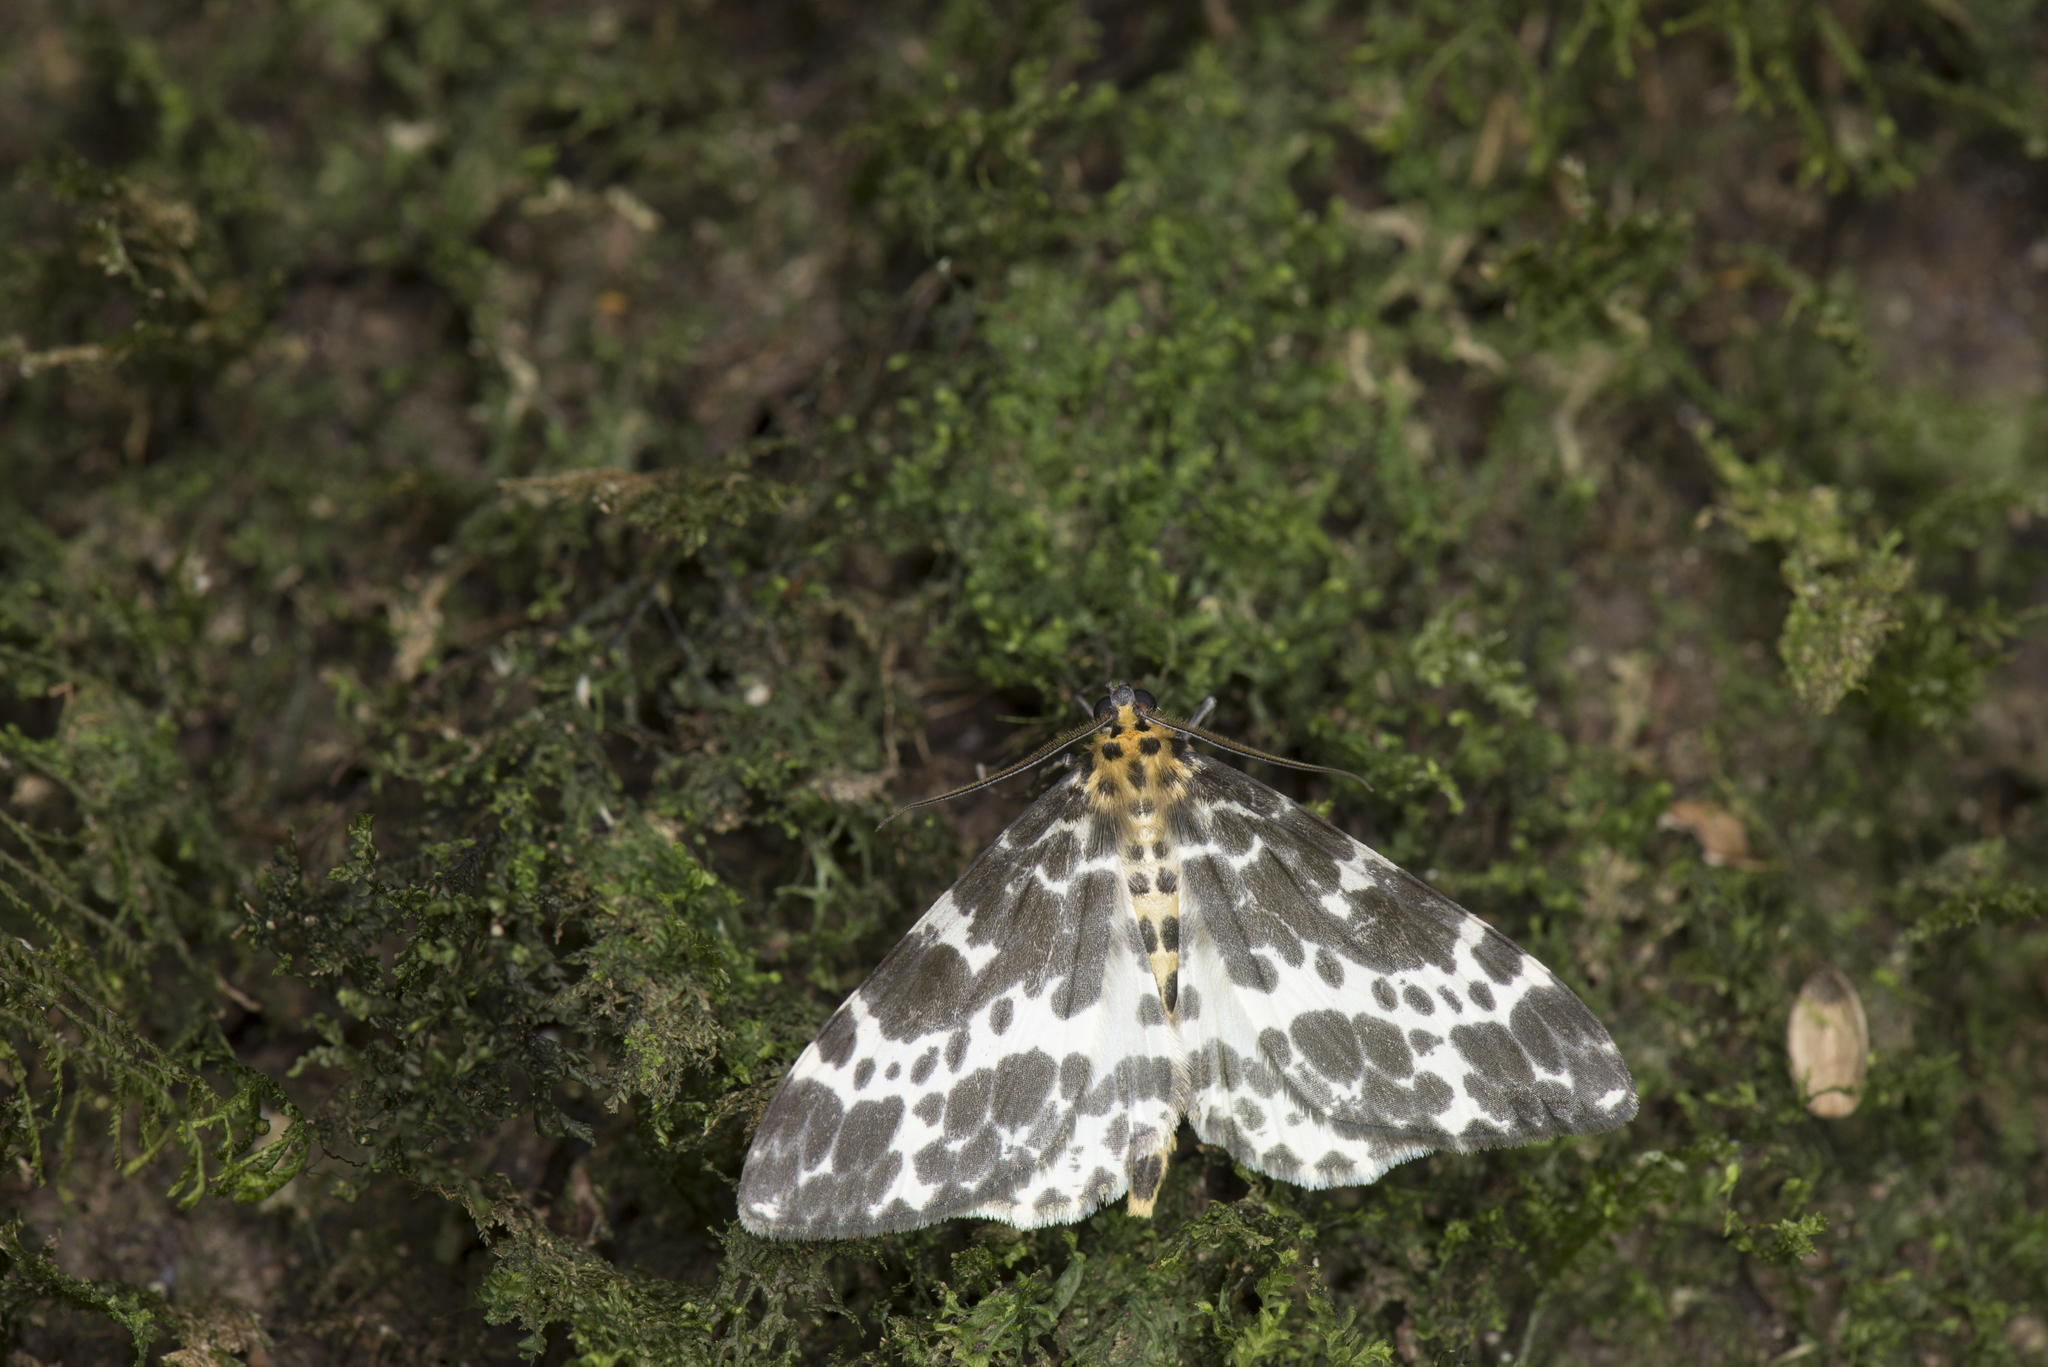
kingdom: Animalia
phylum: Arthropoda
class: Insecta
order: Lepidoptera
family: Geometridae
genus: Dilophodes
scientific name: Dilophodes elegans
